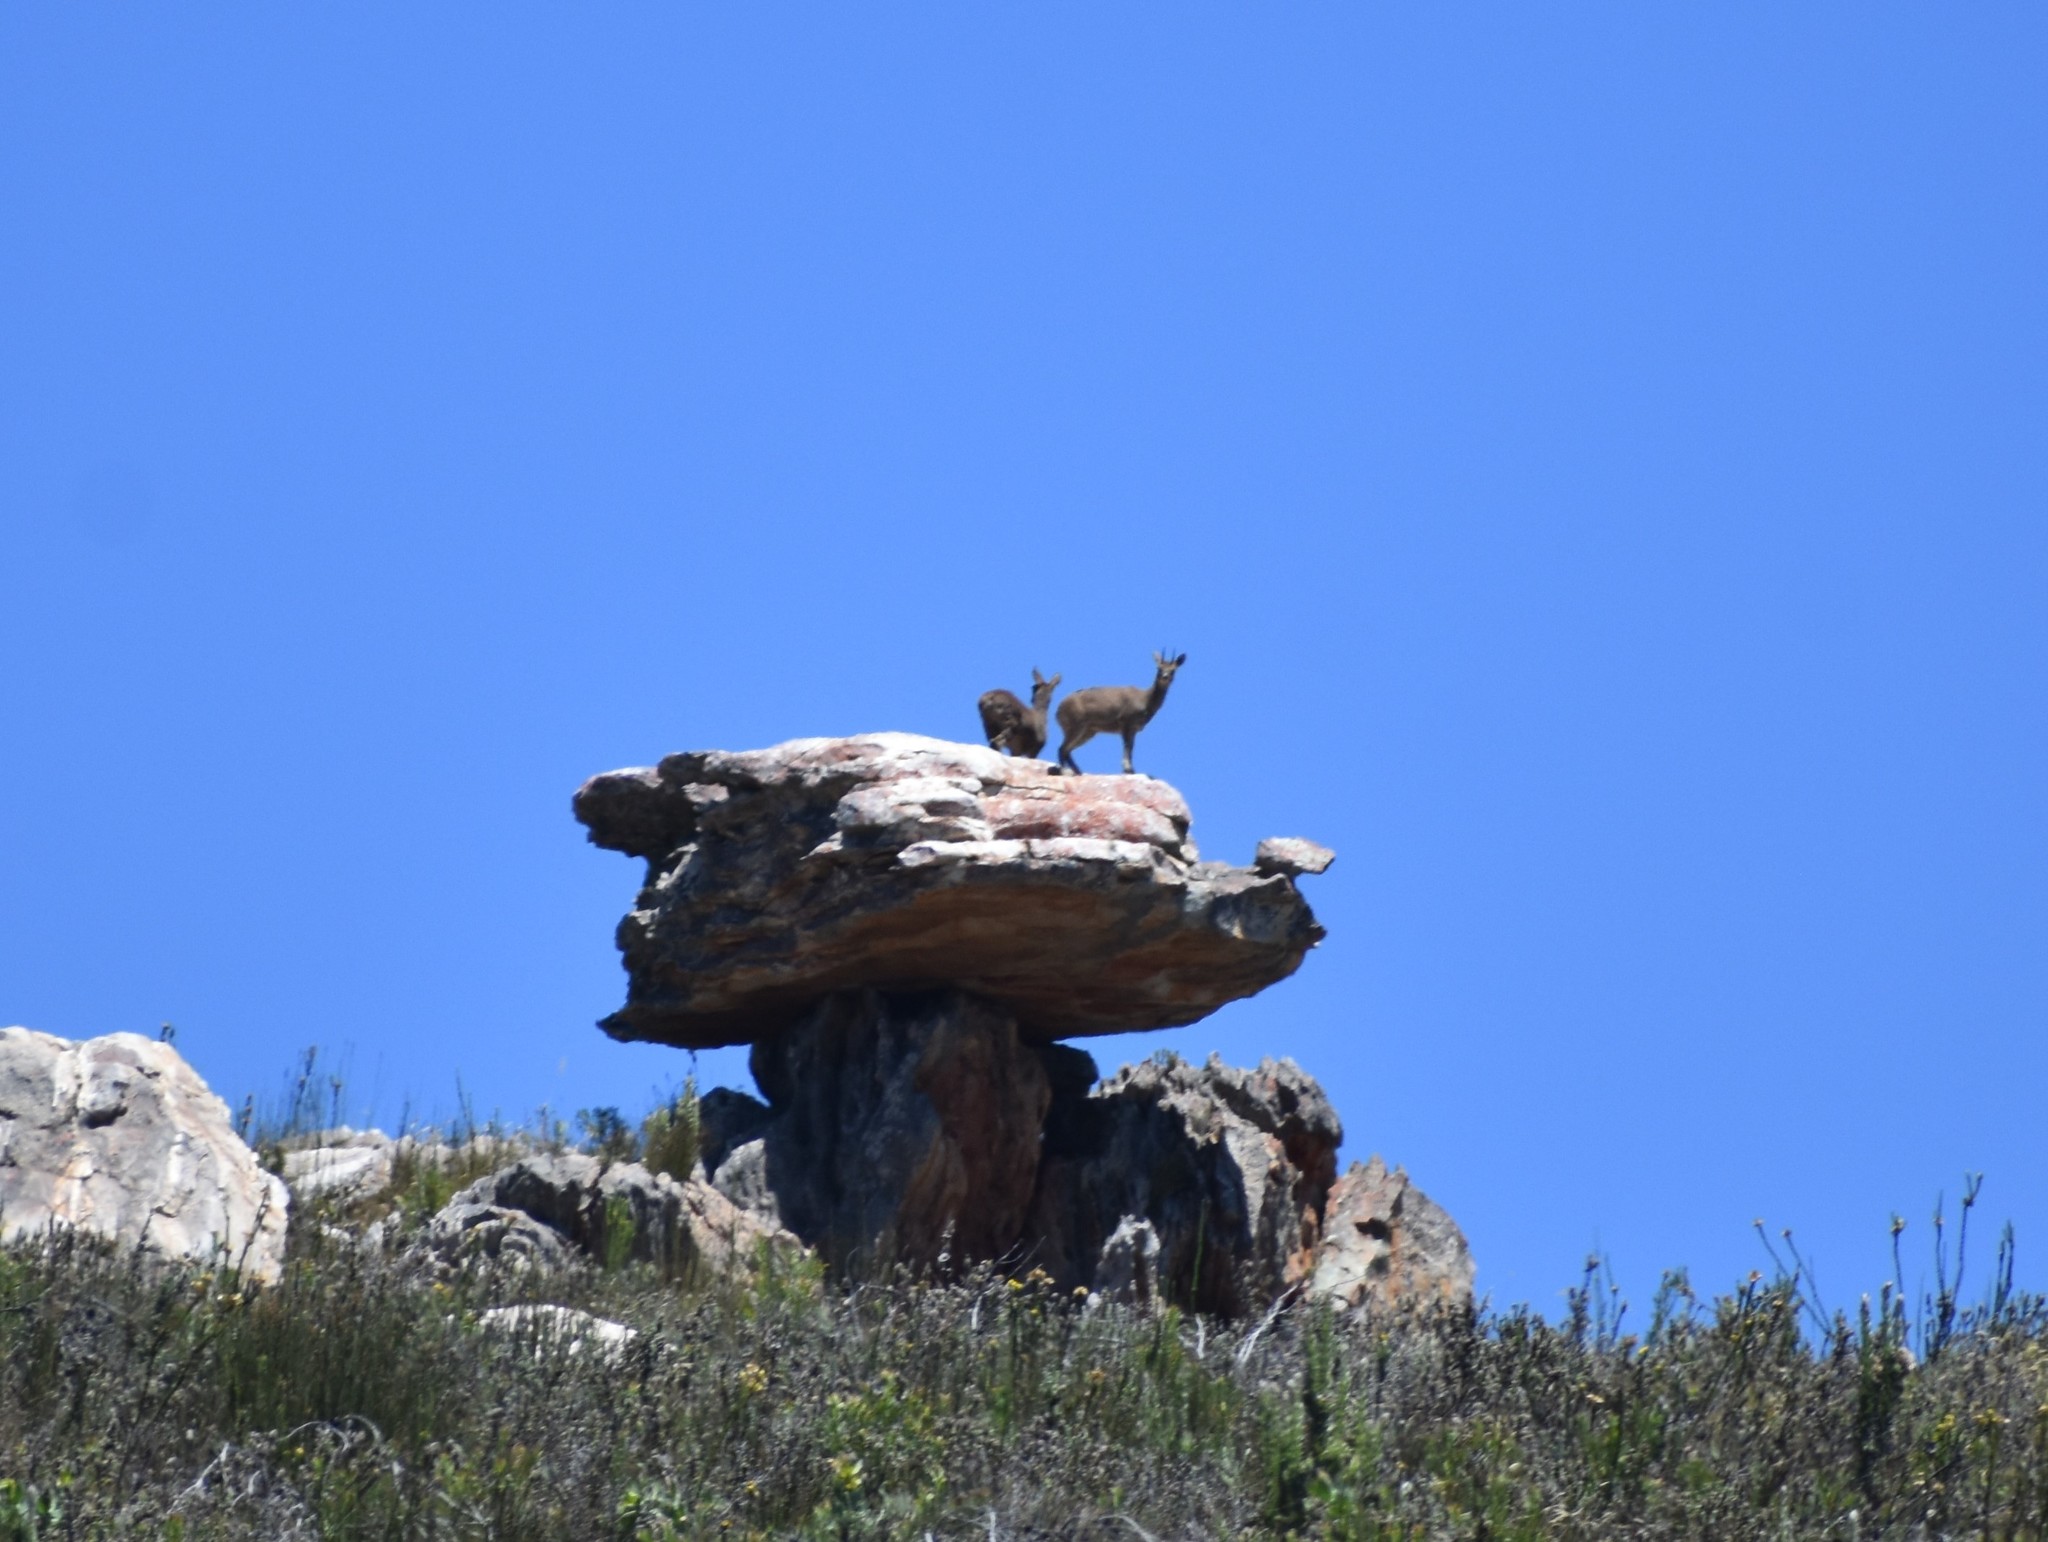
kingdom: Animalia
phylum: Chordata
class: Mammalia
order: Artiodactyla
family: Bovidae
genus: Oreotragus
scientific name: Oreotragus oreotragus
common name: Klipspringer
